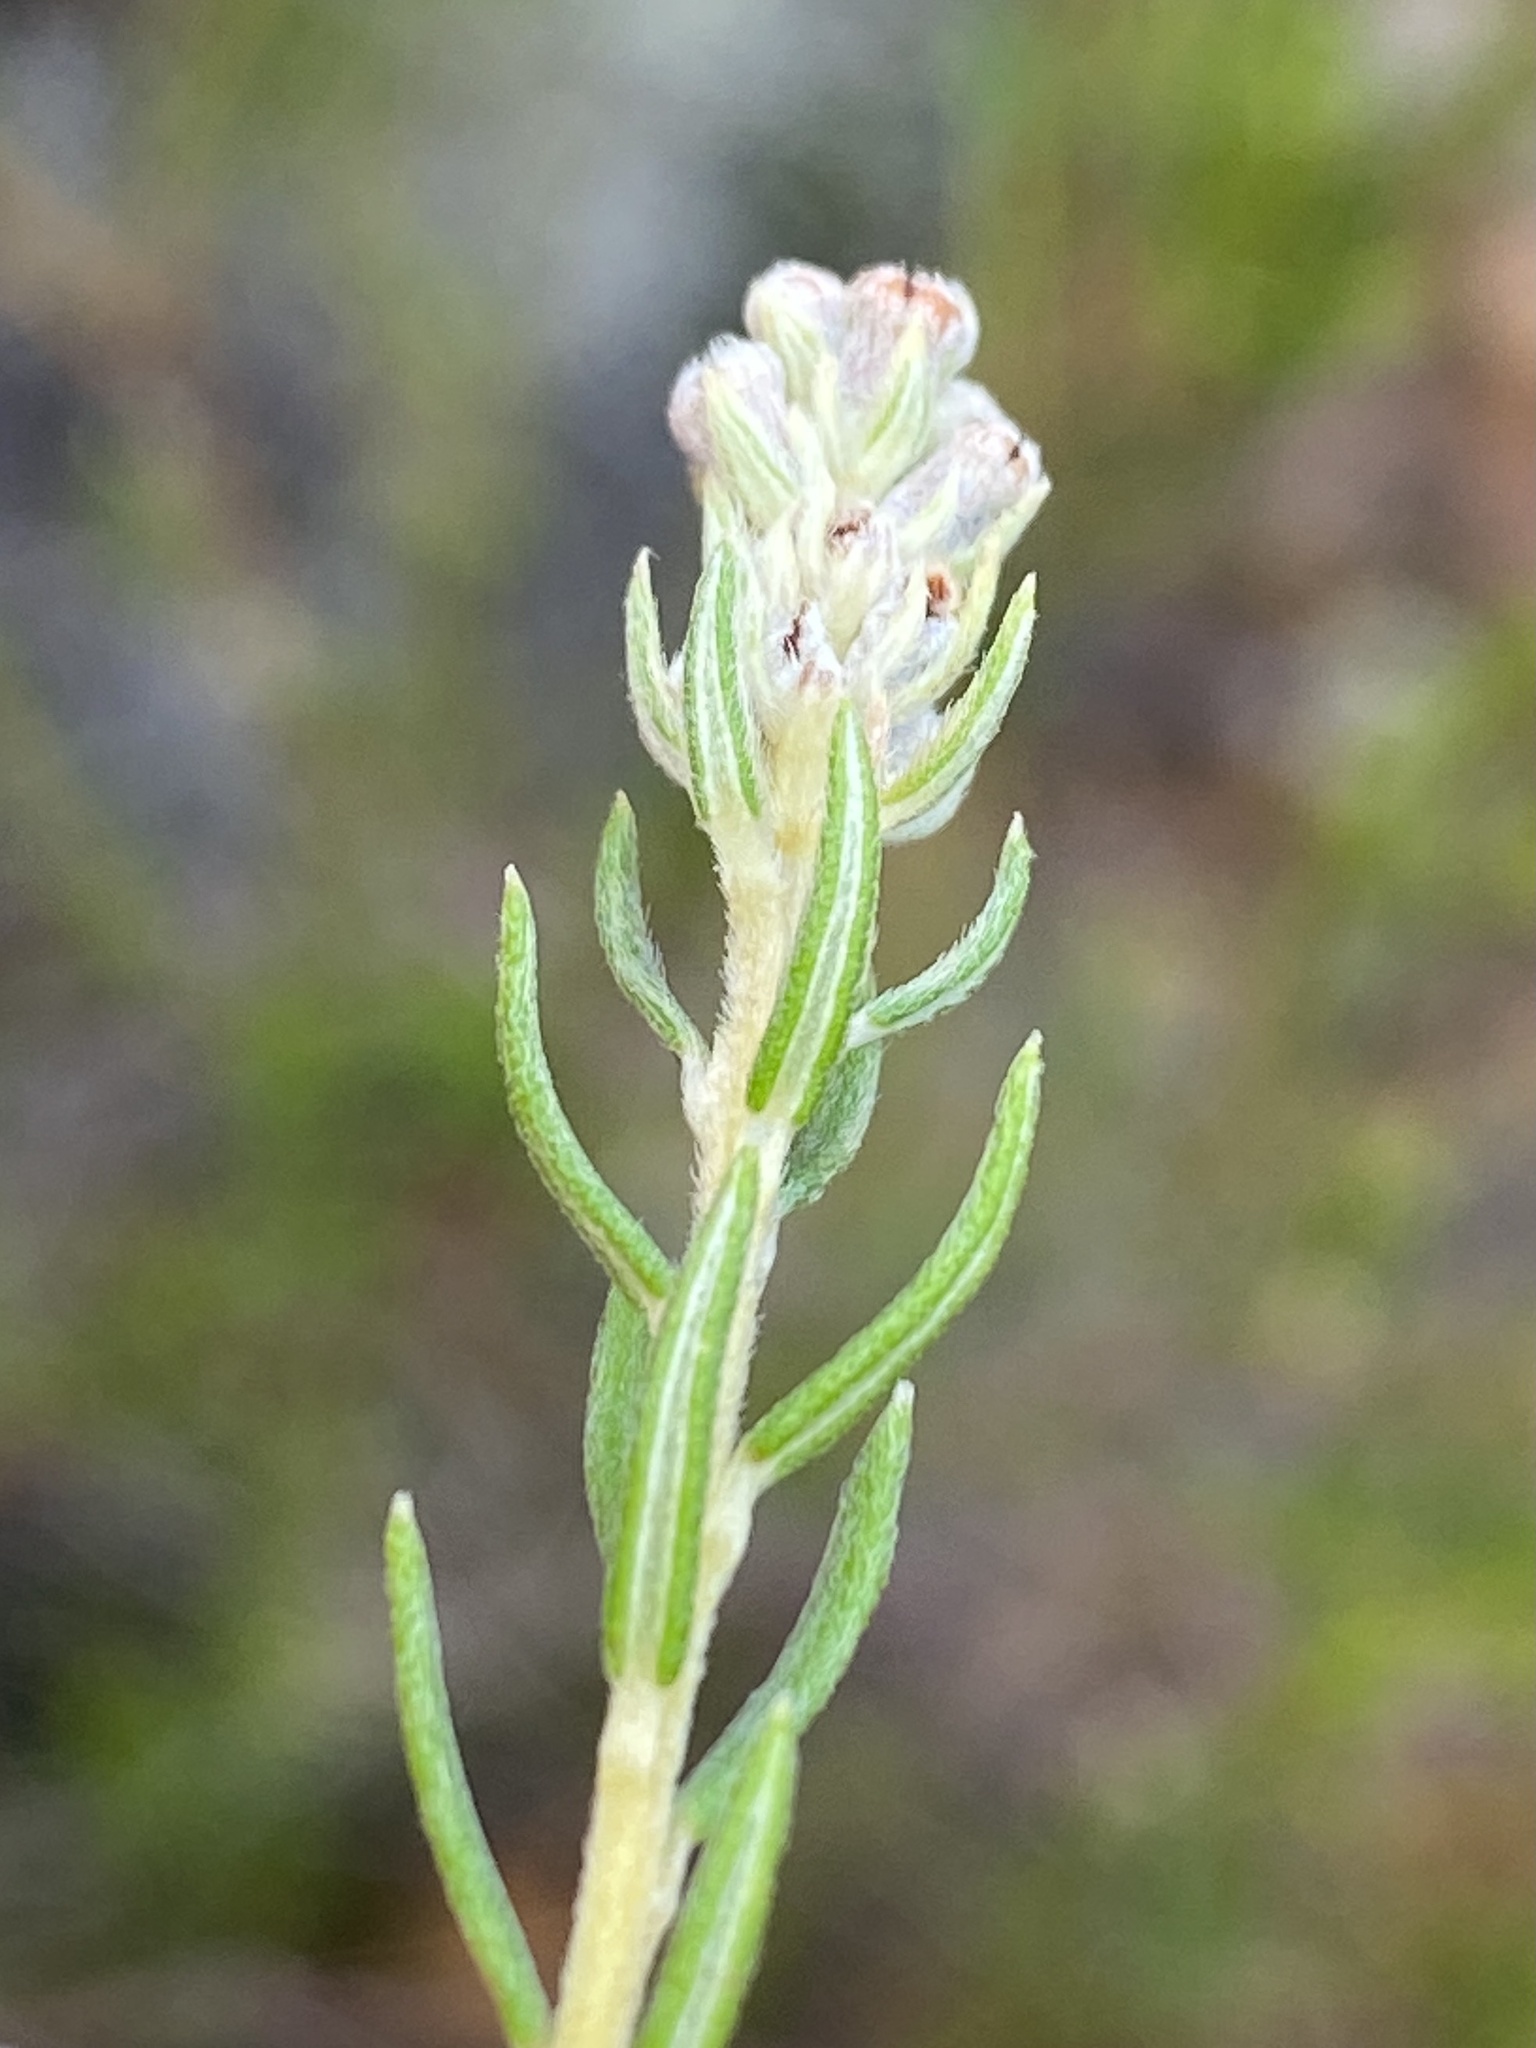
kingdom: Plantae
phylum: Tracheophyta
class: Magnoliopsida
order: Rosales
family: Rhamnaceae
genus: Phylica
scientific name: Phylica excelsa
